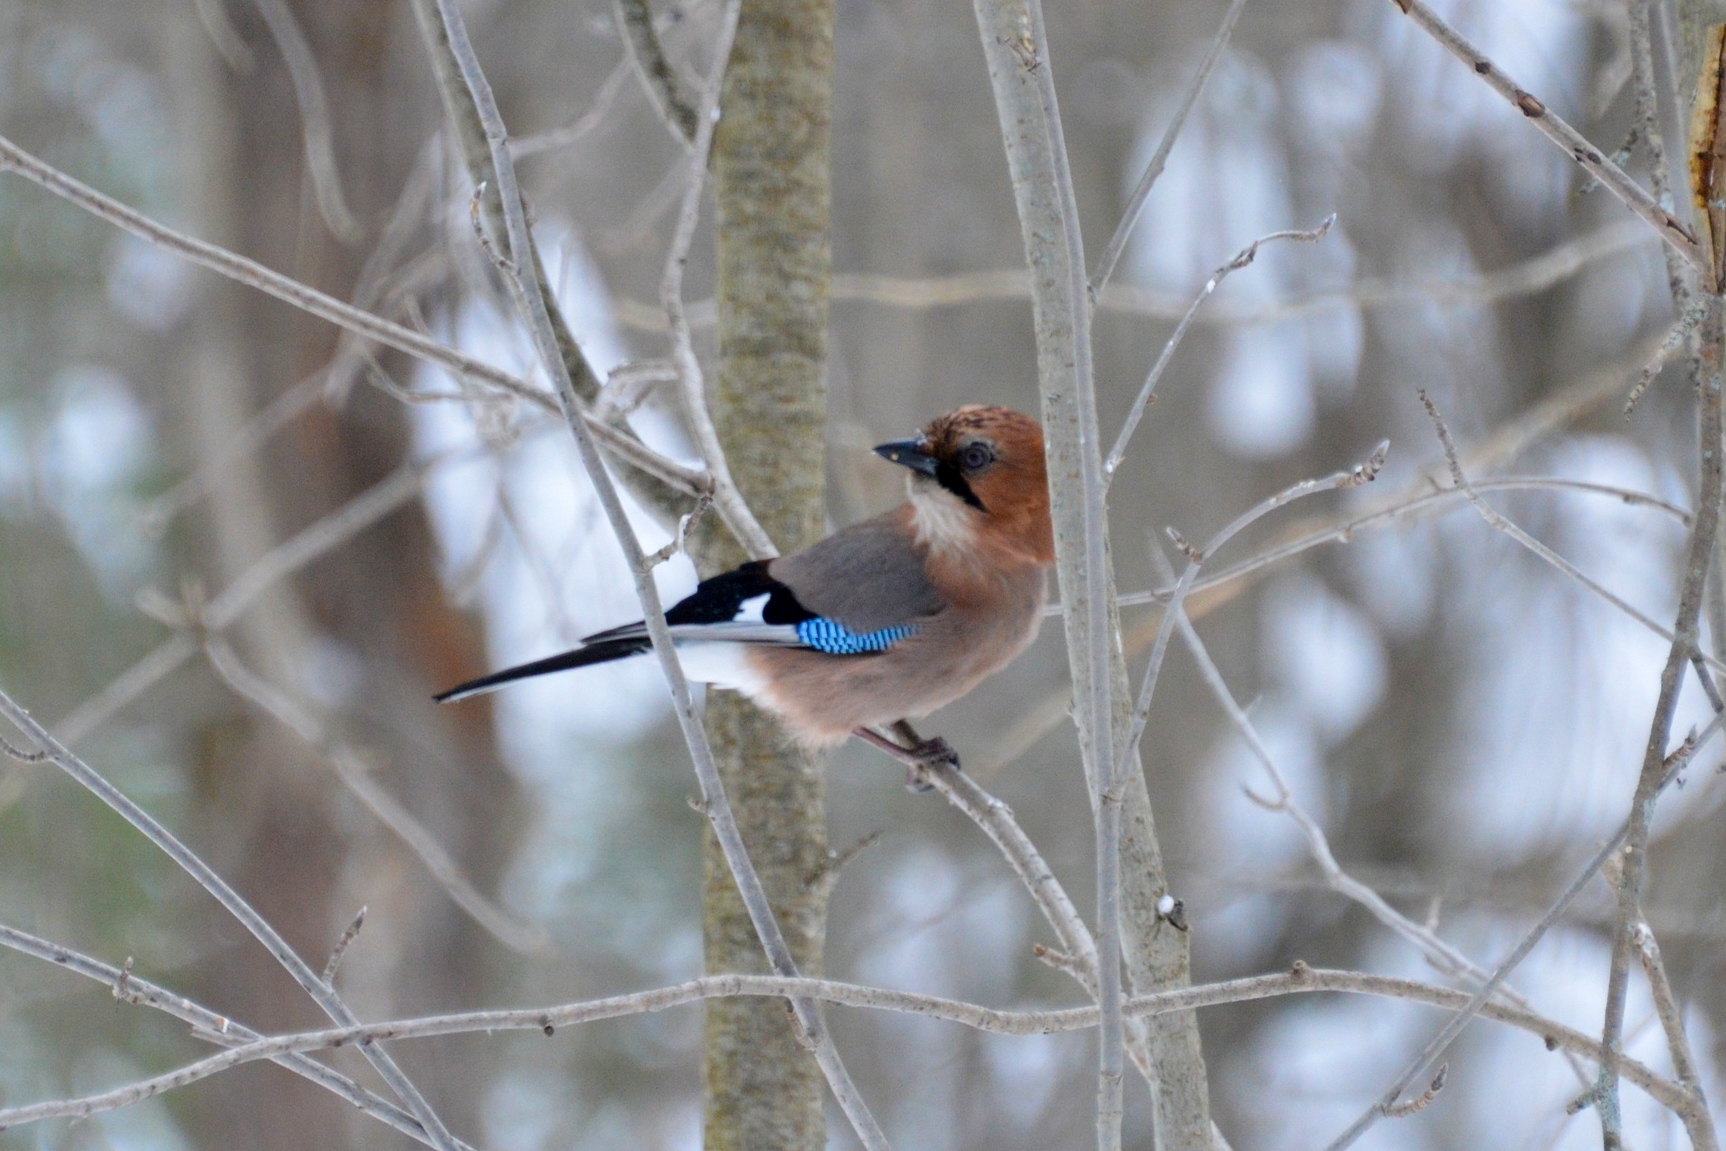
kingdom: Animalia
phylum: Chordata
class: Aves
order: Passeriformes
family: Corvidae
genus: Garrulus
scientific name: Garrulus glandarius
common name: Eurasian jay
